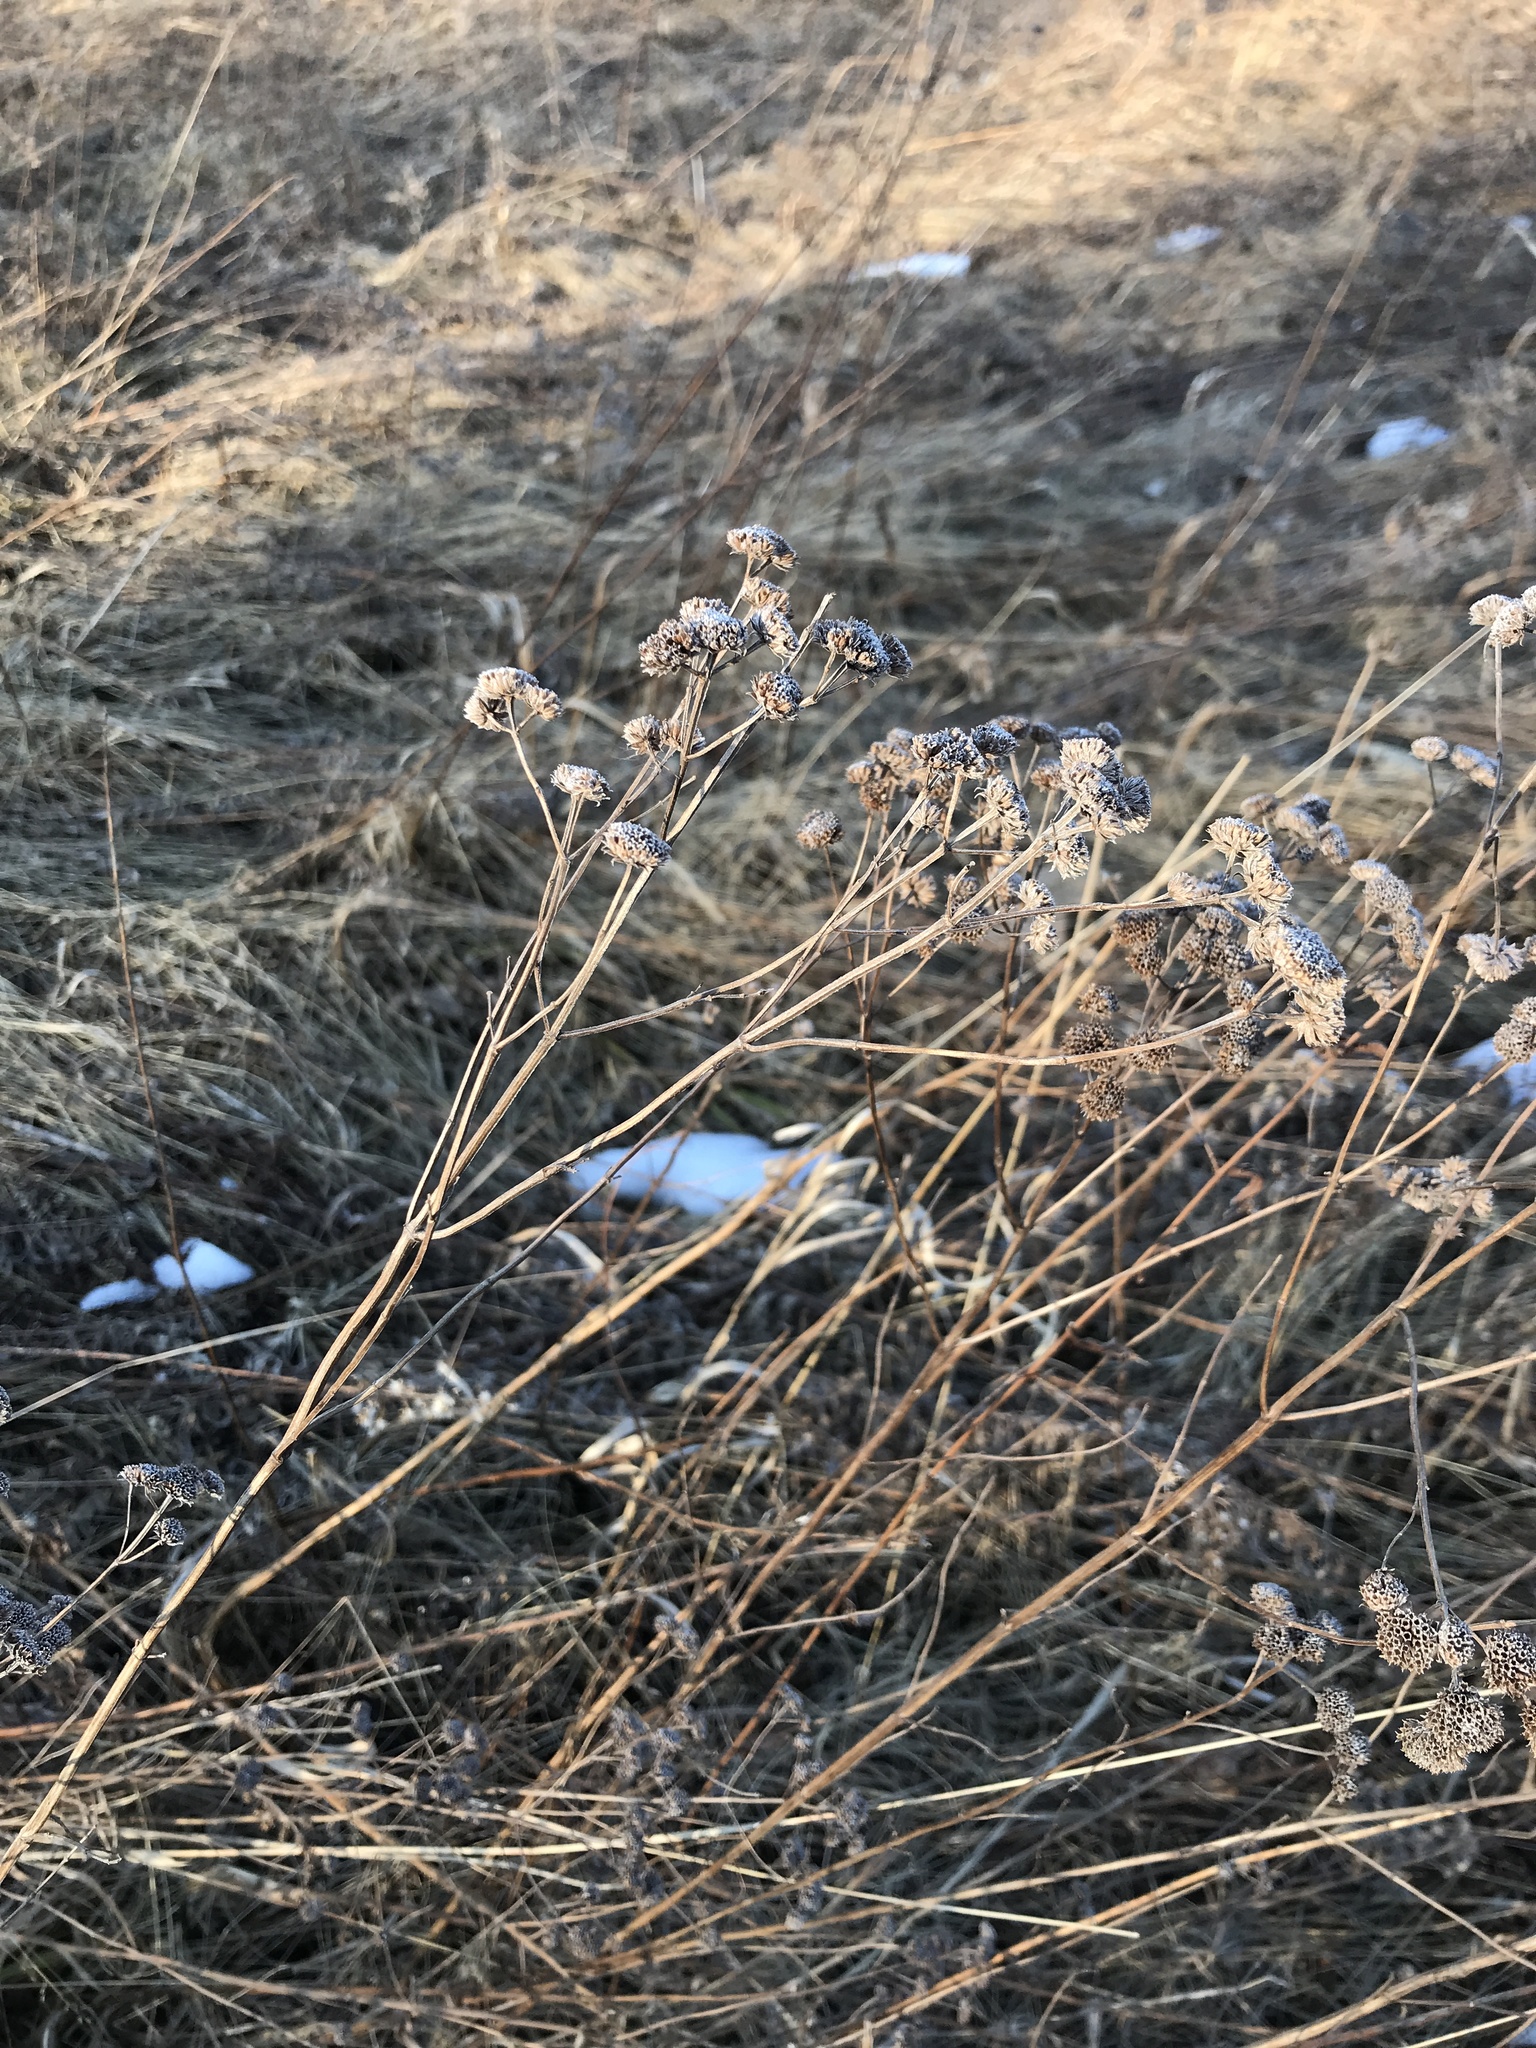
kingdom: Plantae
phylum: Tracheophyta
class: Magnoliopsida
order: Lamiales
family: Lamiaceae
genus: Pycnanthemum
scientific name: Pycnanthemum virginianum
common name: Virginia mountain-mint
